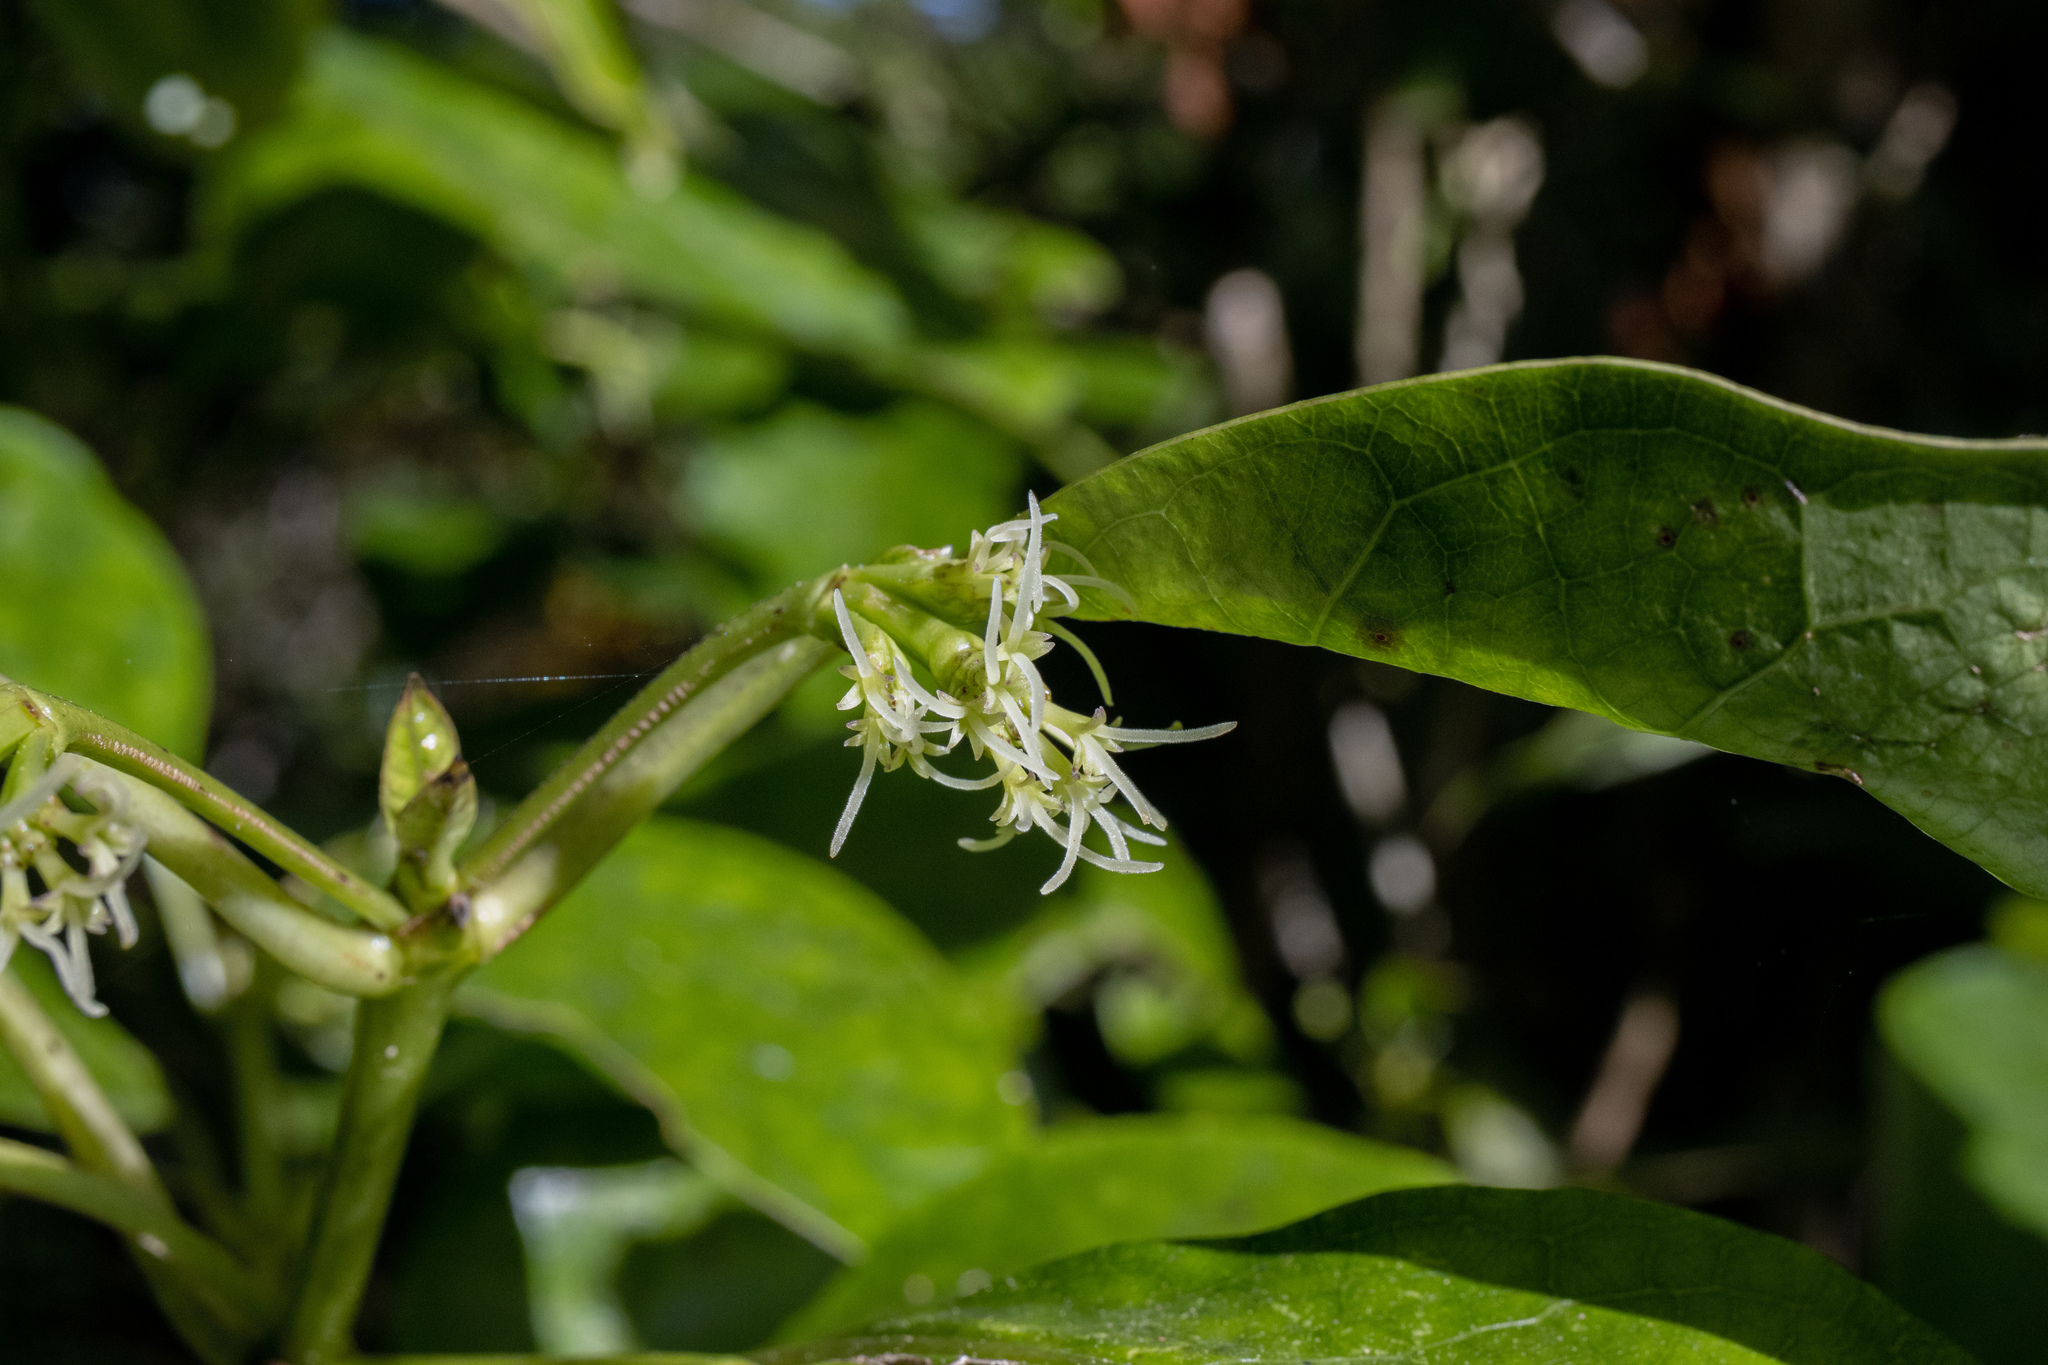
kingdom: Plantae
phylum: Tracheophyta
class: Magnoliopsida
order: Gentianales
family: Rubiaceae
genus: Coprosma
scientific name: Coprosma autumnalis
